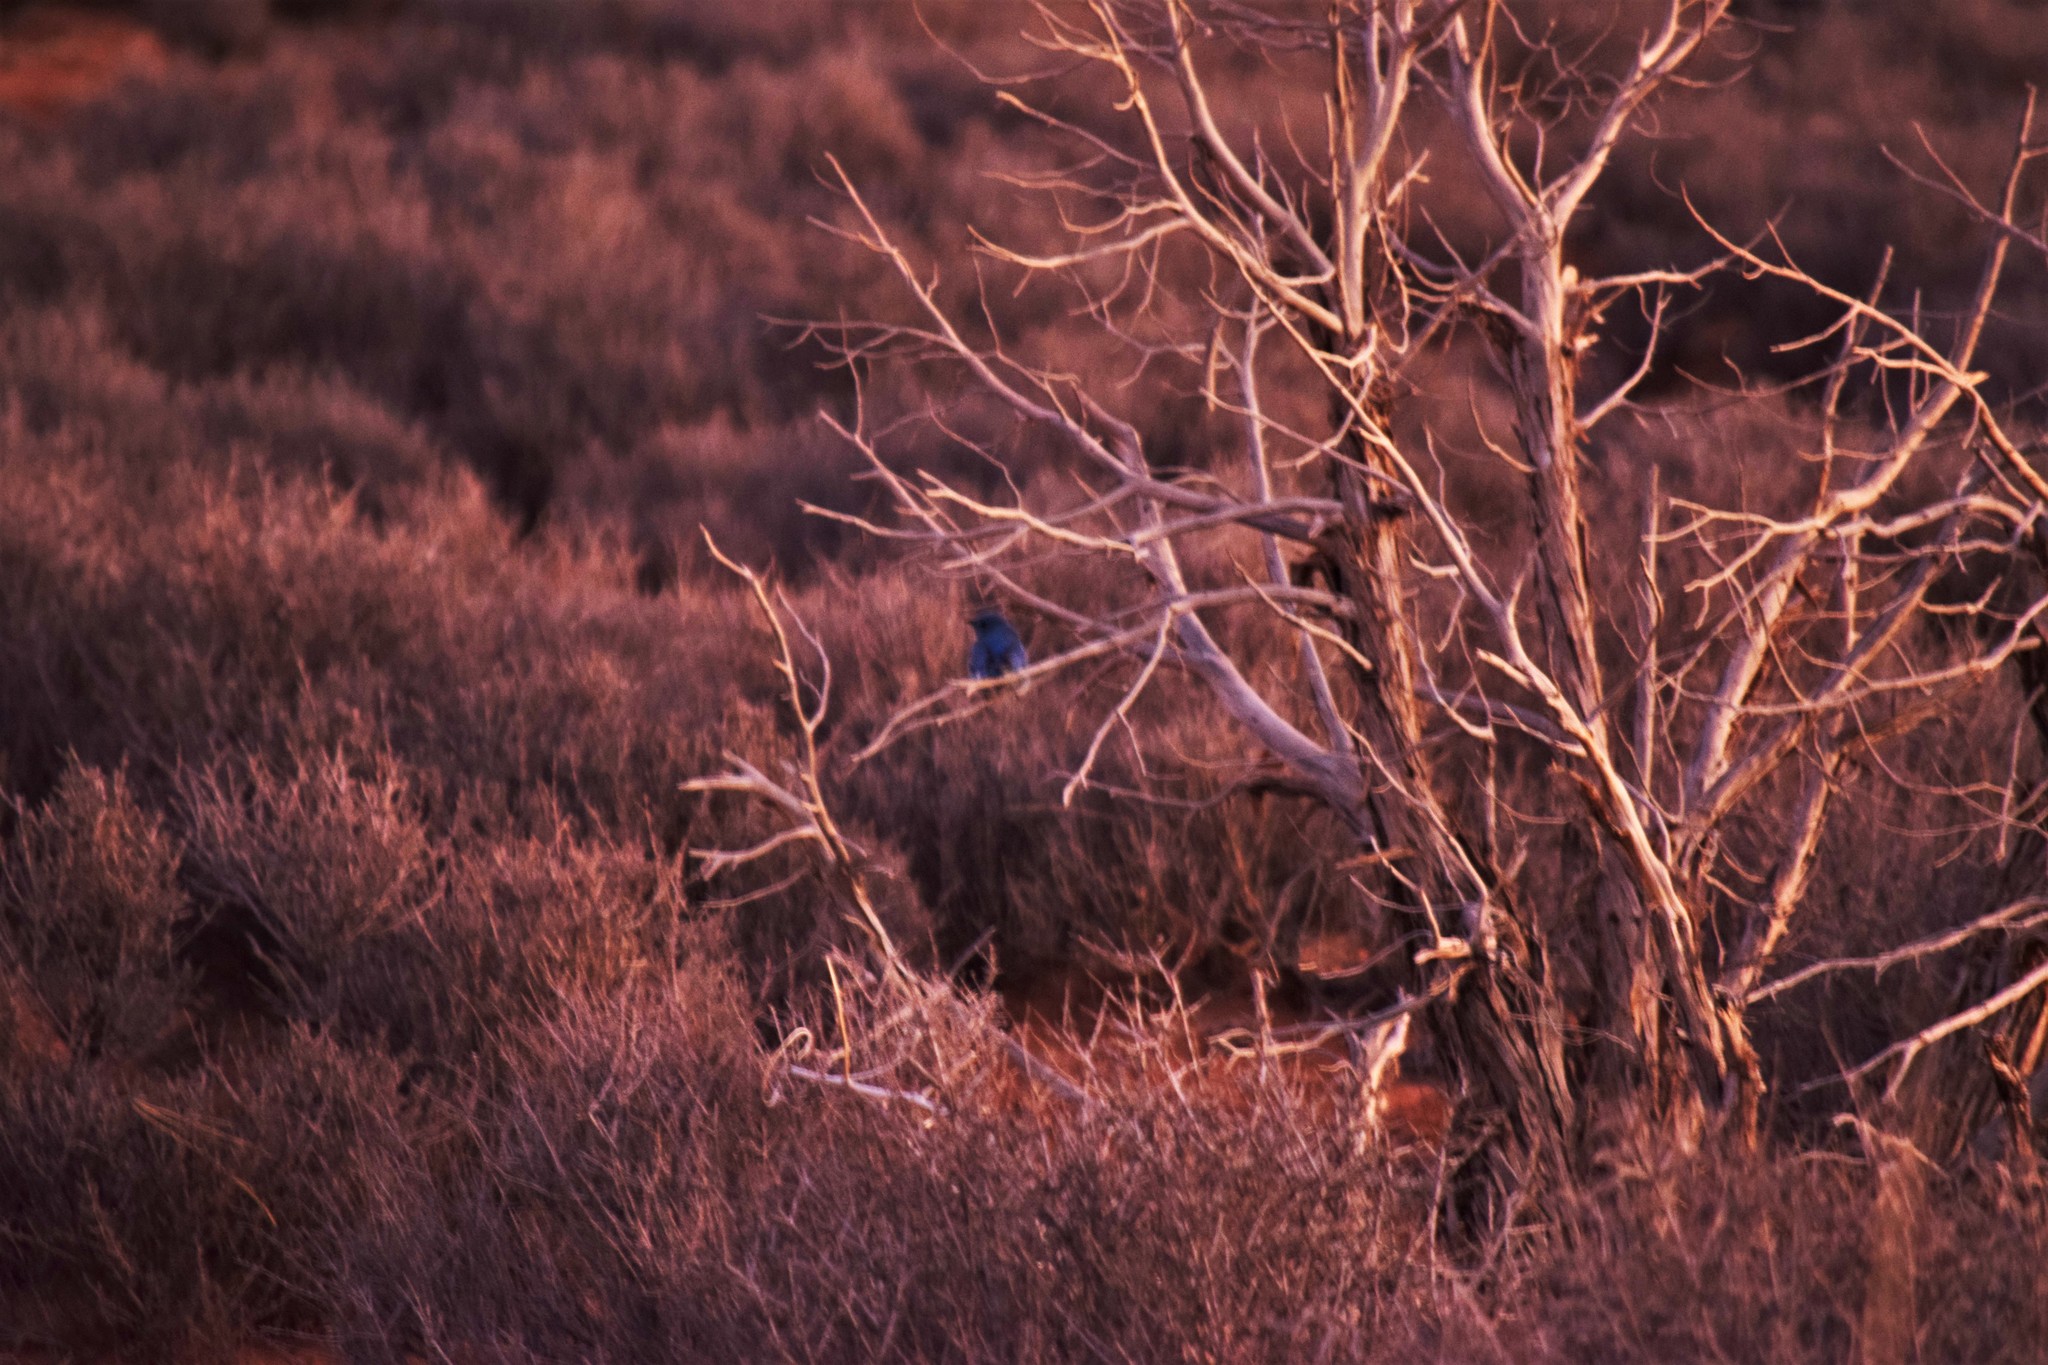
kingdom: Animalia
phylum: Chordata
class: Aves
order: Passeriformes
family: Turdidae
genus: Sialia
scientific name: Sialia currucoides
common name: Mountain bluebird
